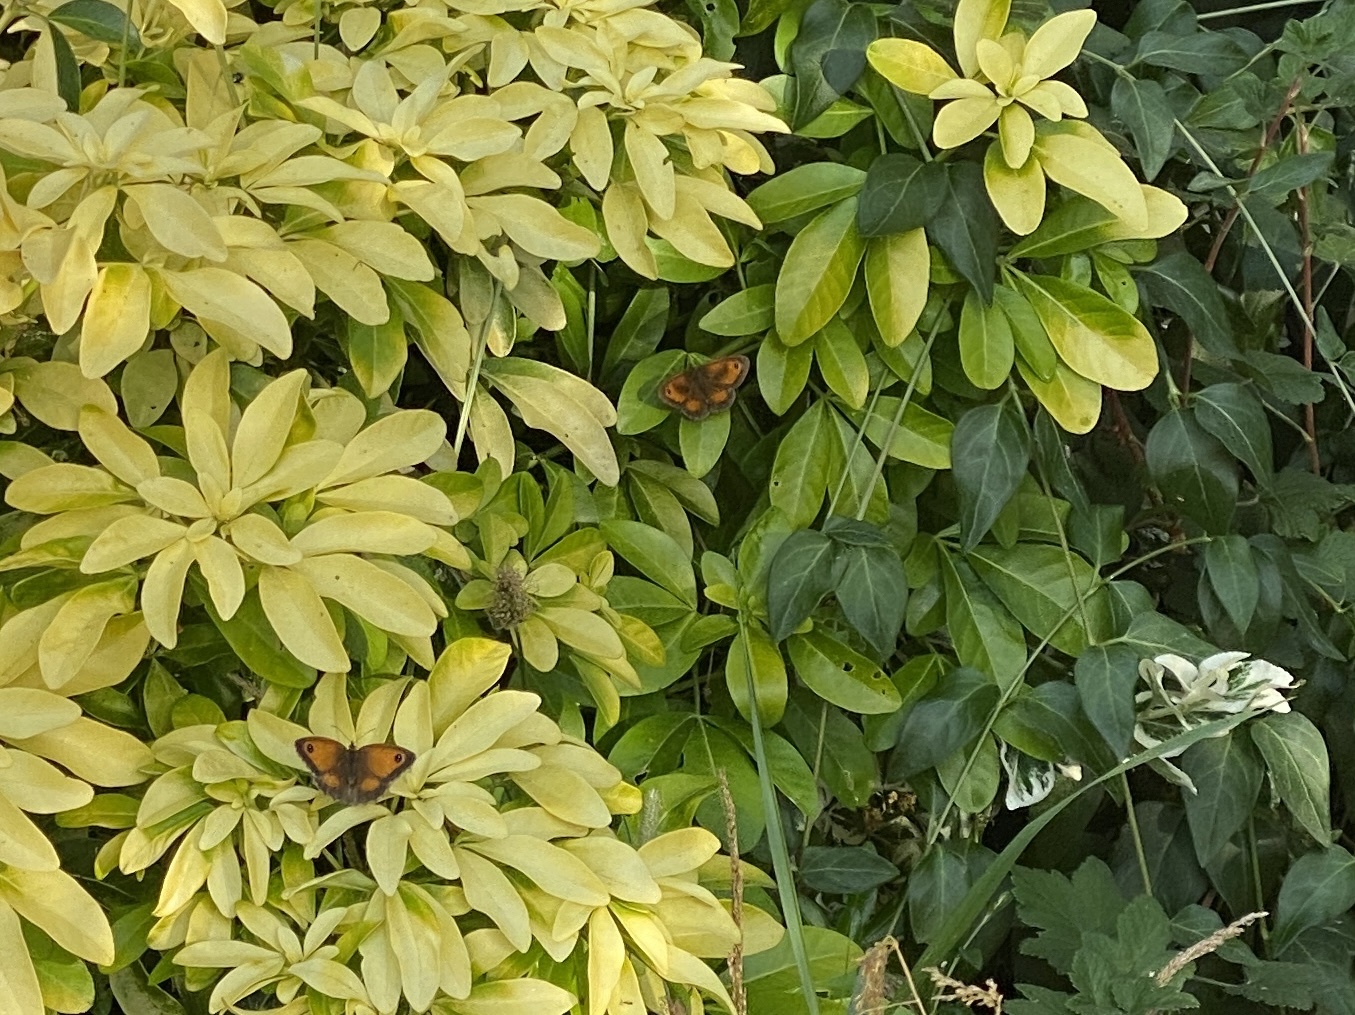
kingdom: Animalia
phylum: Arthropoda
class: Insecta
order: Lepidoptera
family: Nymphalidae
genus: Pyronia
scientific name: Pyronia tithonus
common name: Gatekeeper
